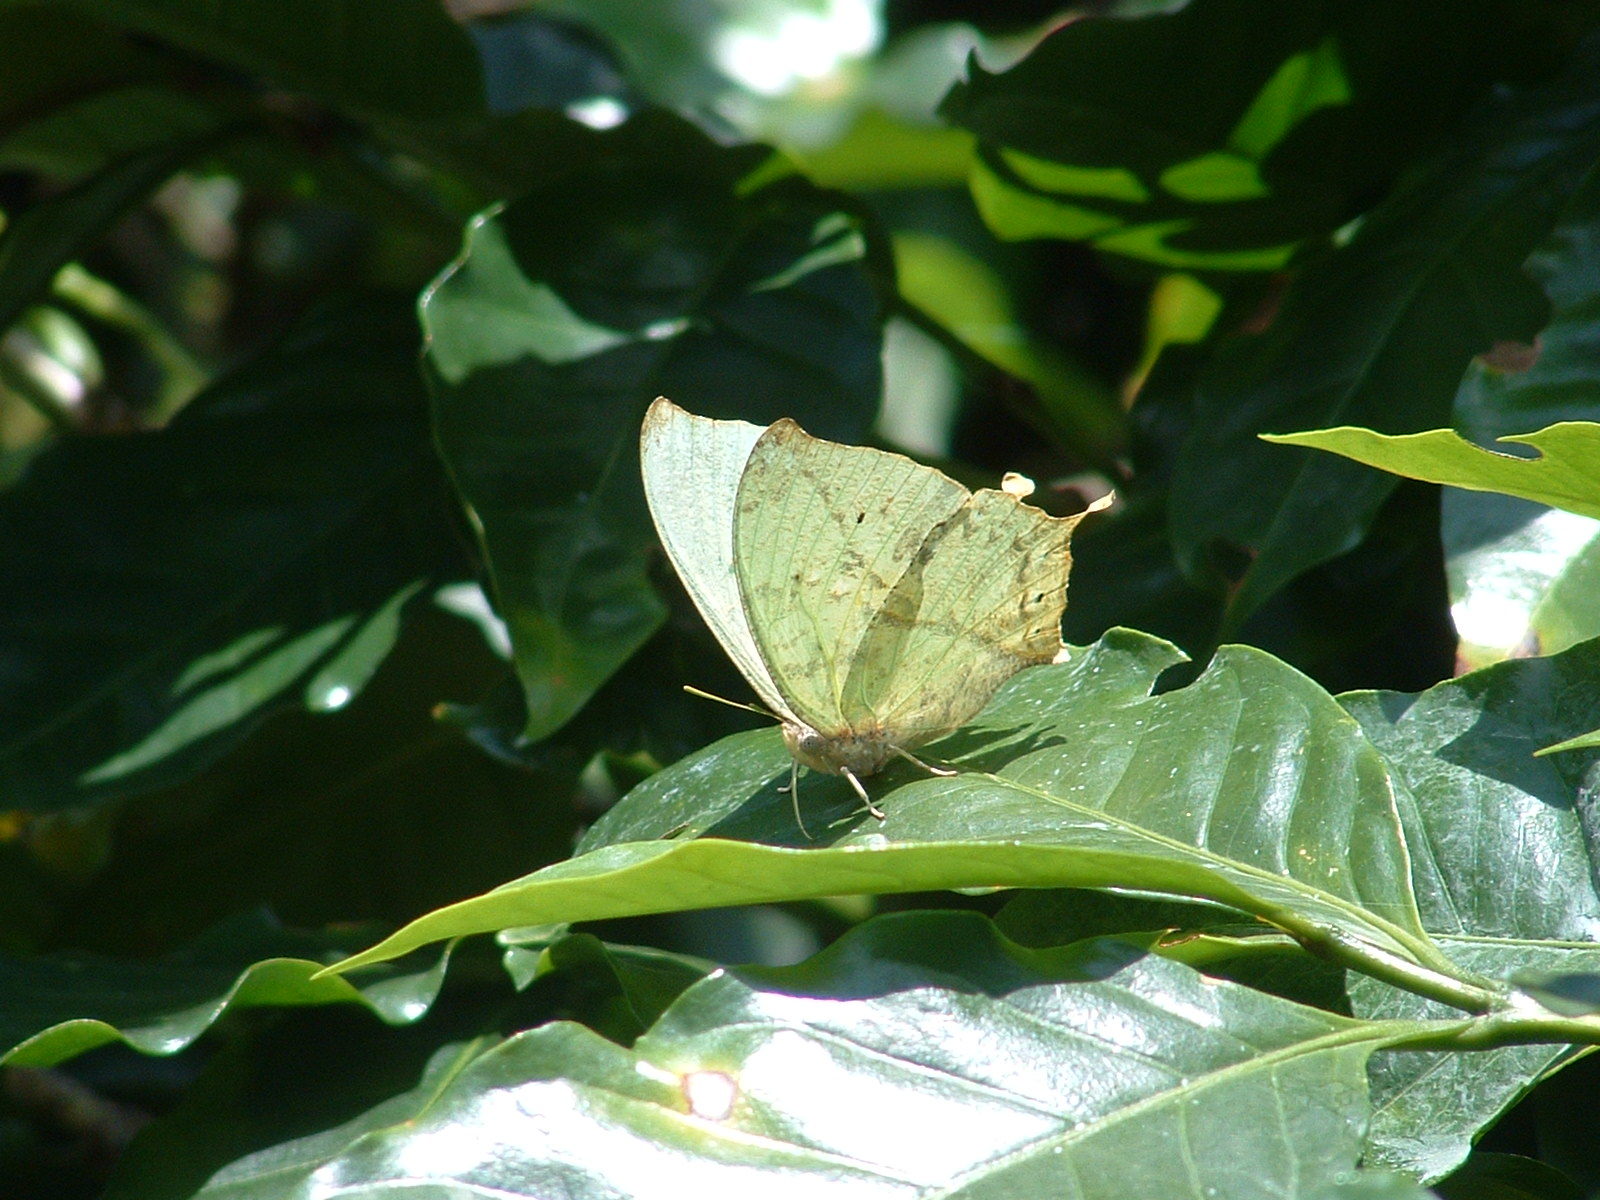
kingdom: Animalia
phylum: Arthropoda
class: Insecta
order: Lepidoptera
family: Nymphalidae
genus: Zaretis
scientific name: Zaretis callidryas
